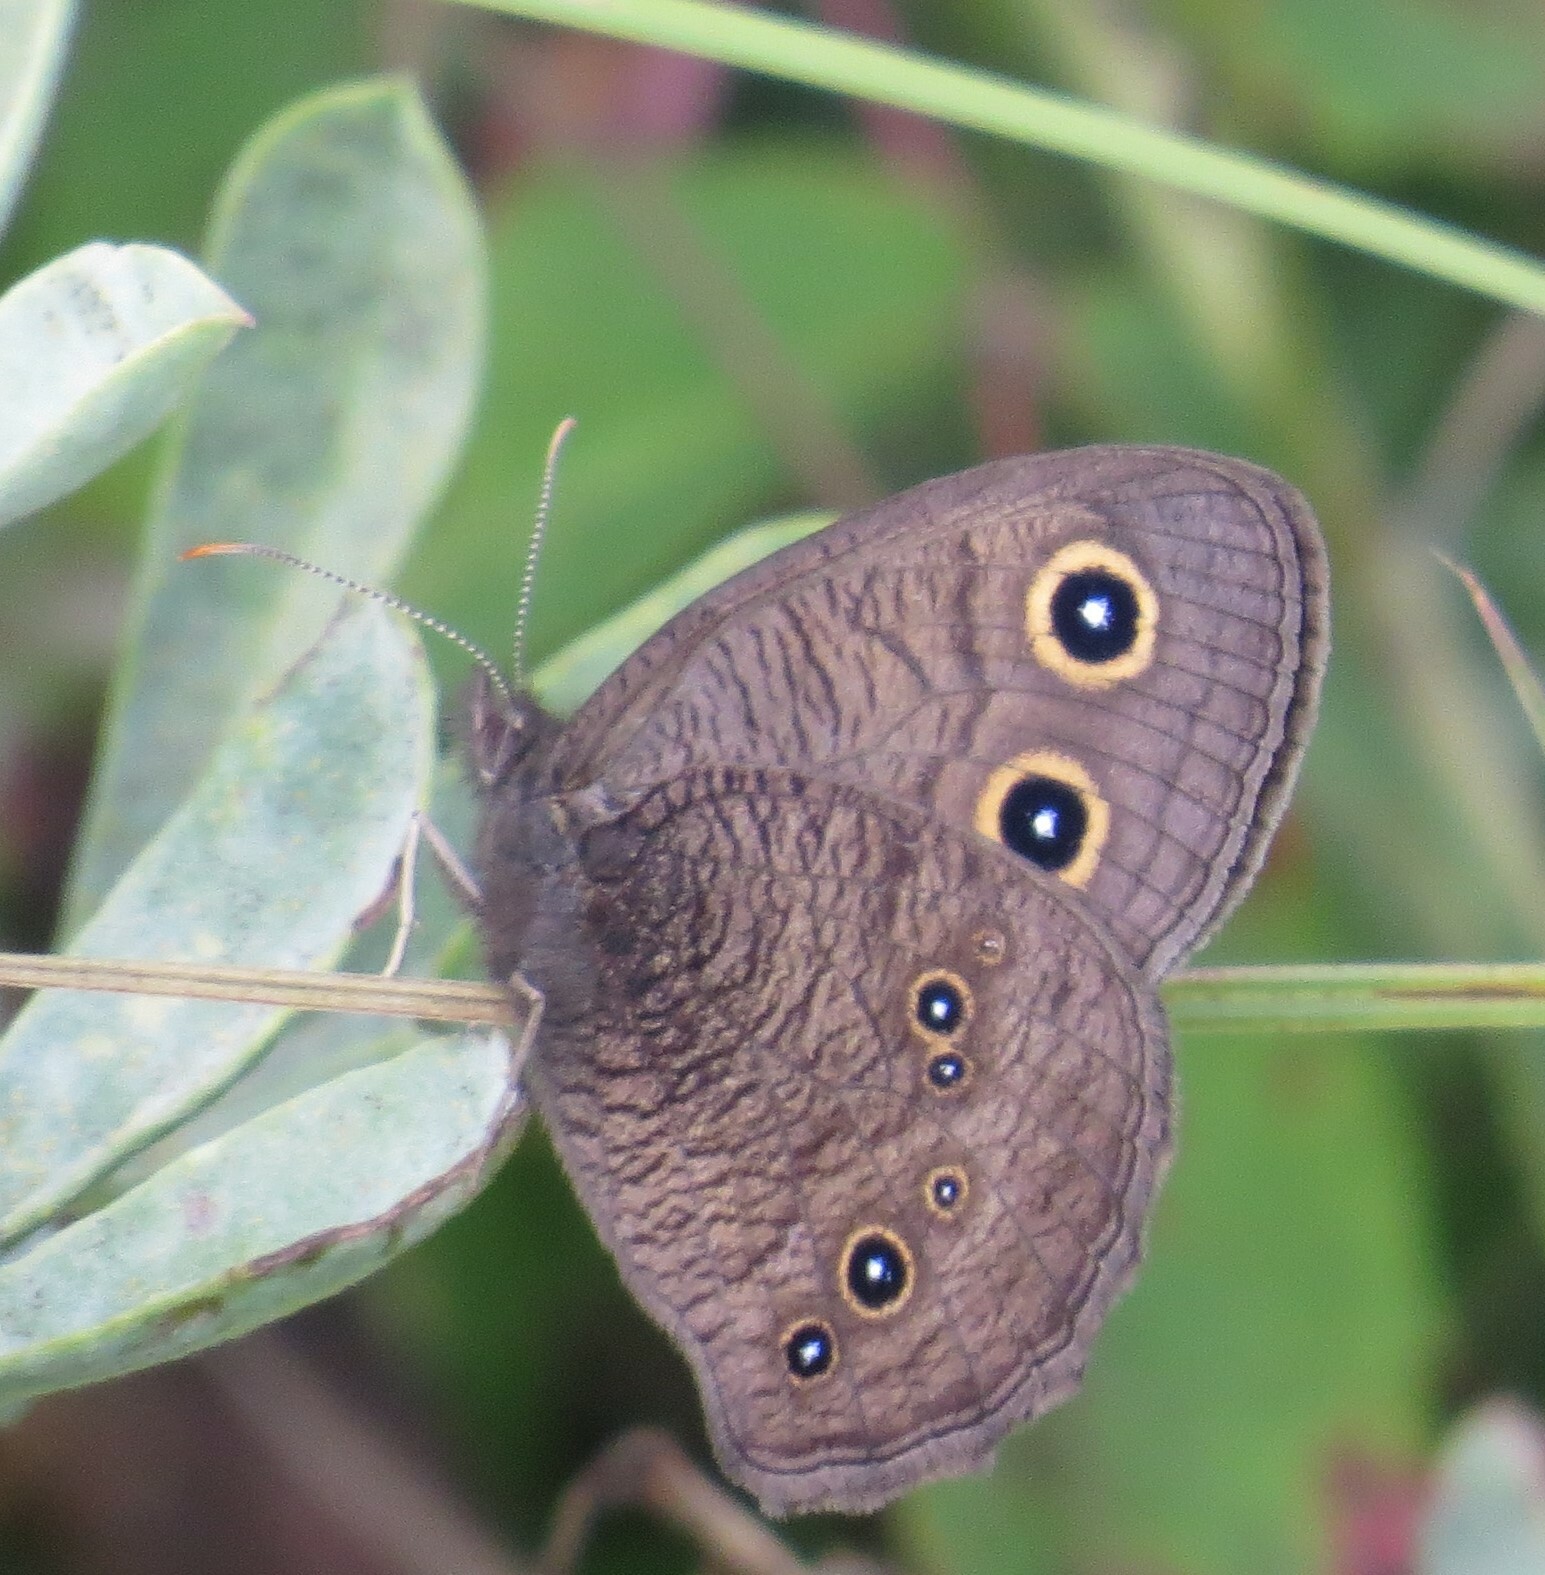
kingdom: Animalia
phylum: Arthropoda
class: Insecta
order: Lepidoptera
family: Nymphalidae
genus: Cercyonis
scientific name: Cercyonis pegala
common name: Common wood-nymph
